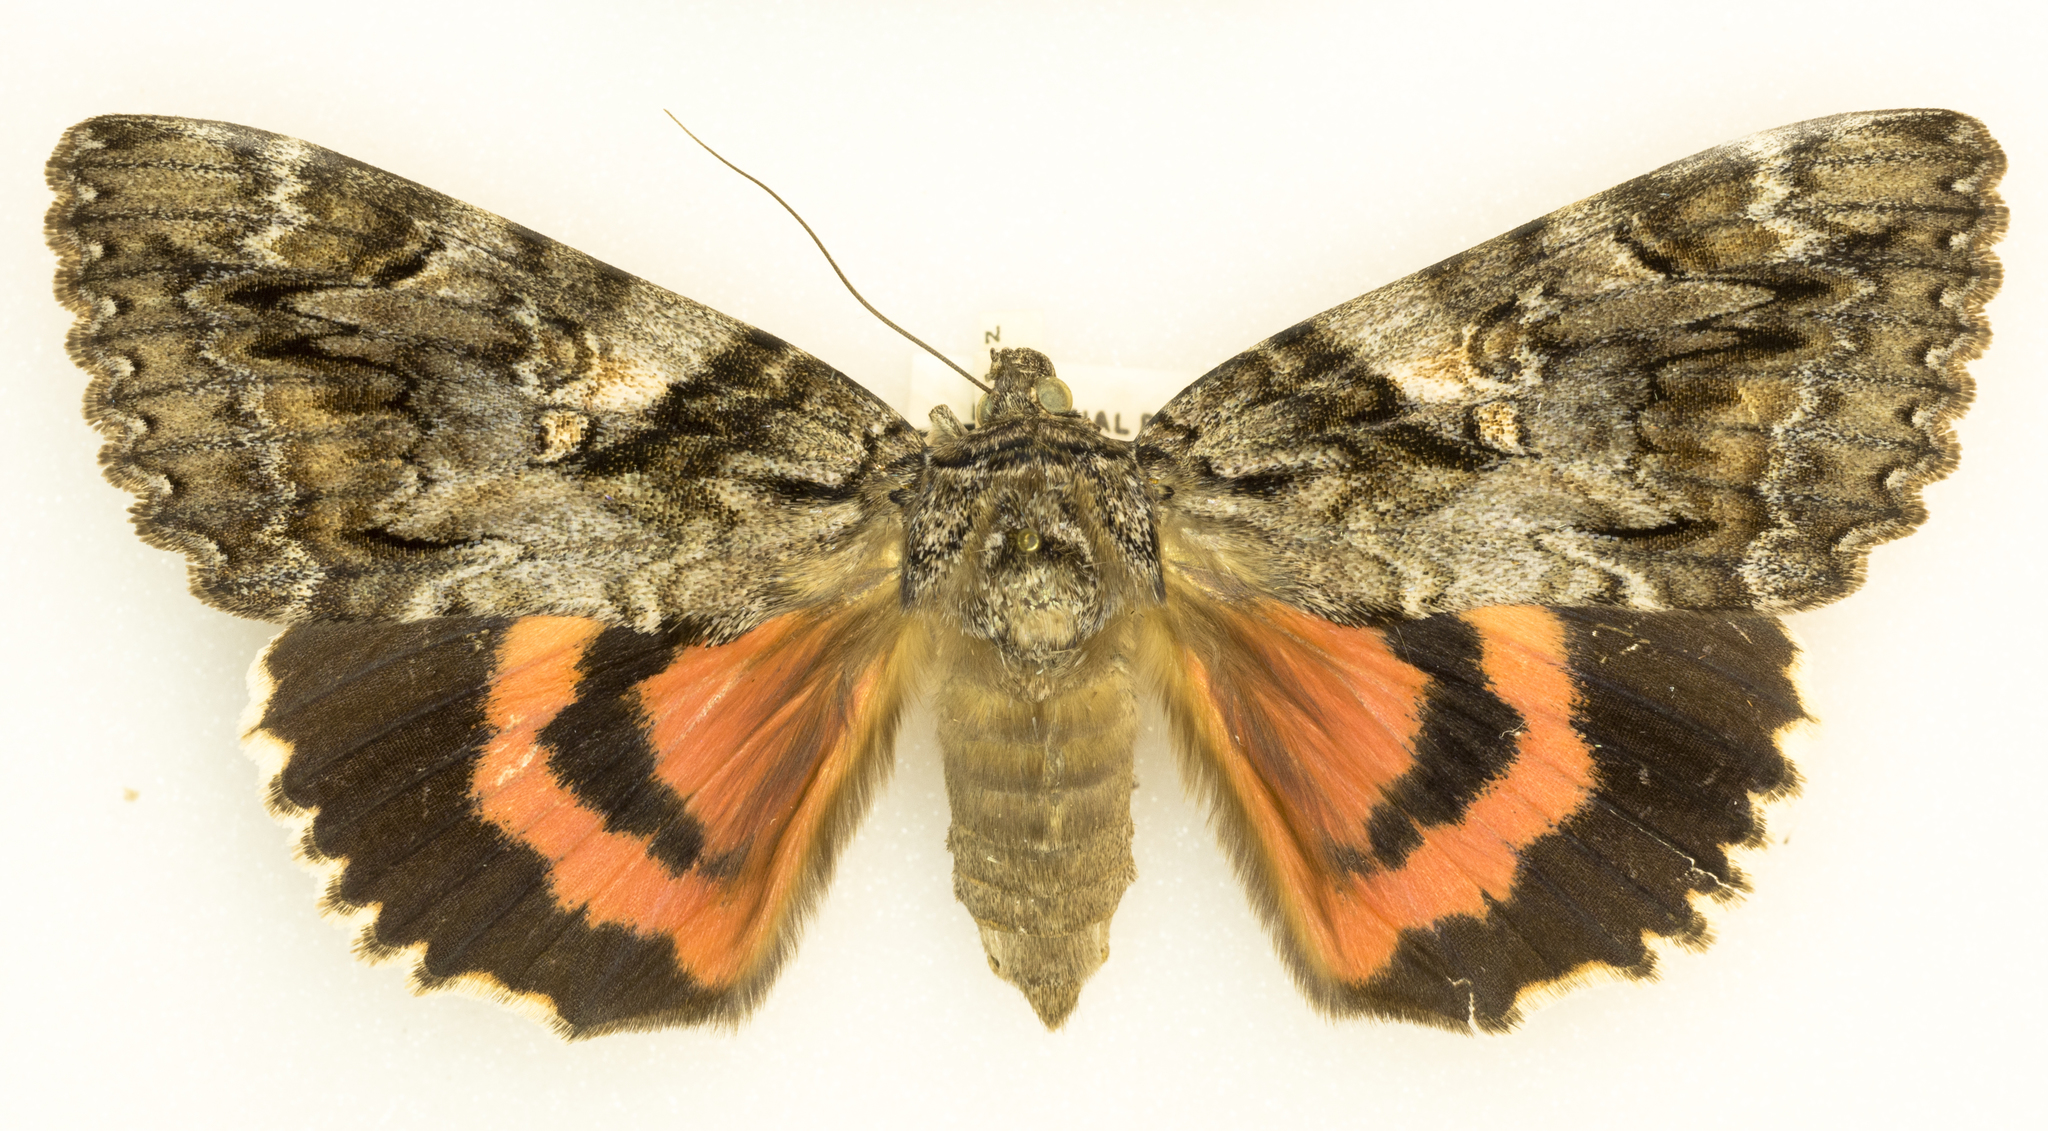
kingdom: Animalia
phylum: Arthropoda
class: Insecta
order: Lepidoptera
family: Erebidae
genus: Catocala
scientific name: Catocala aholibah
